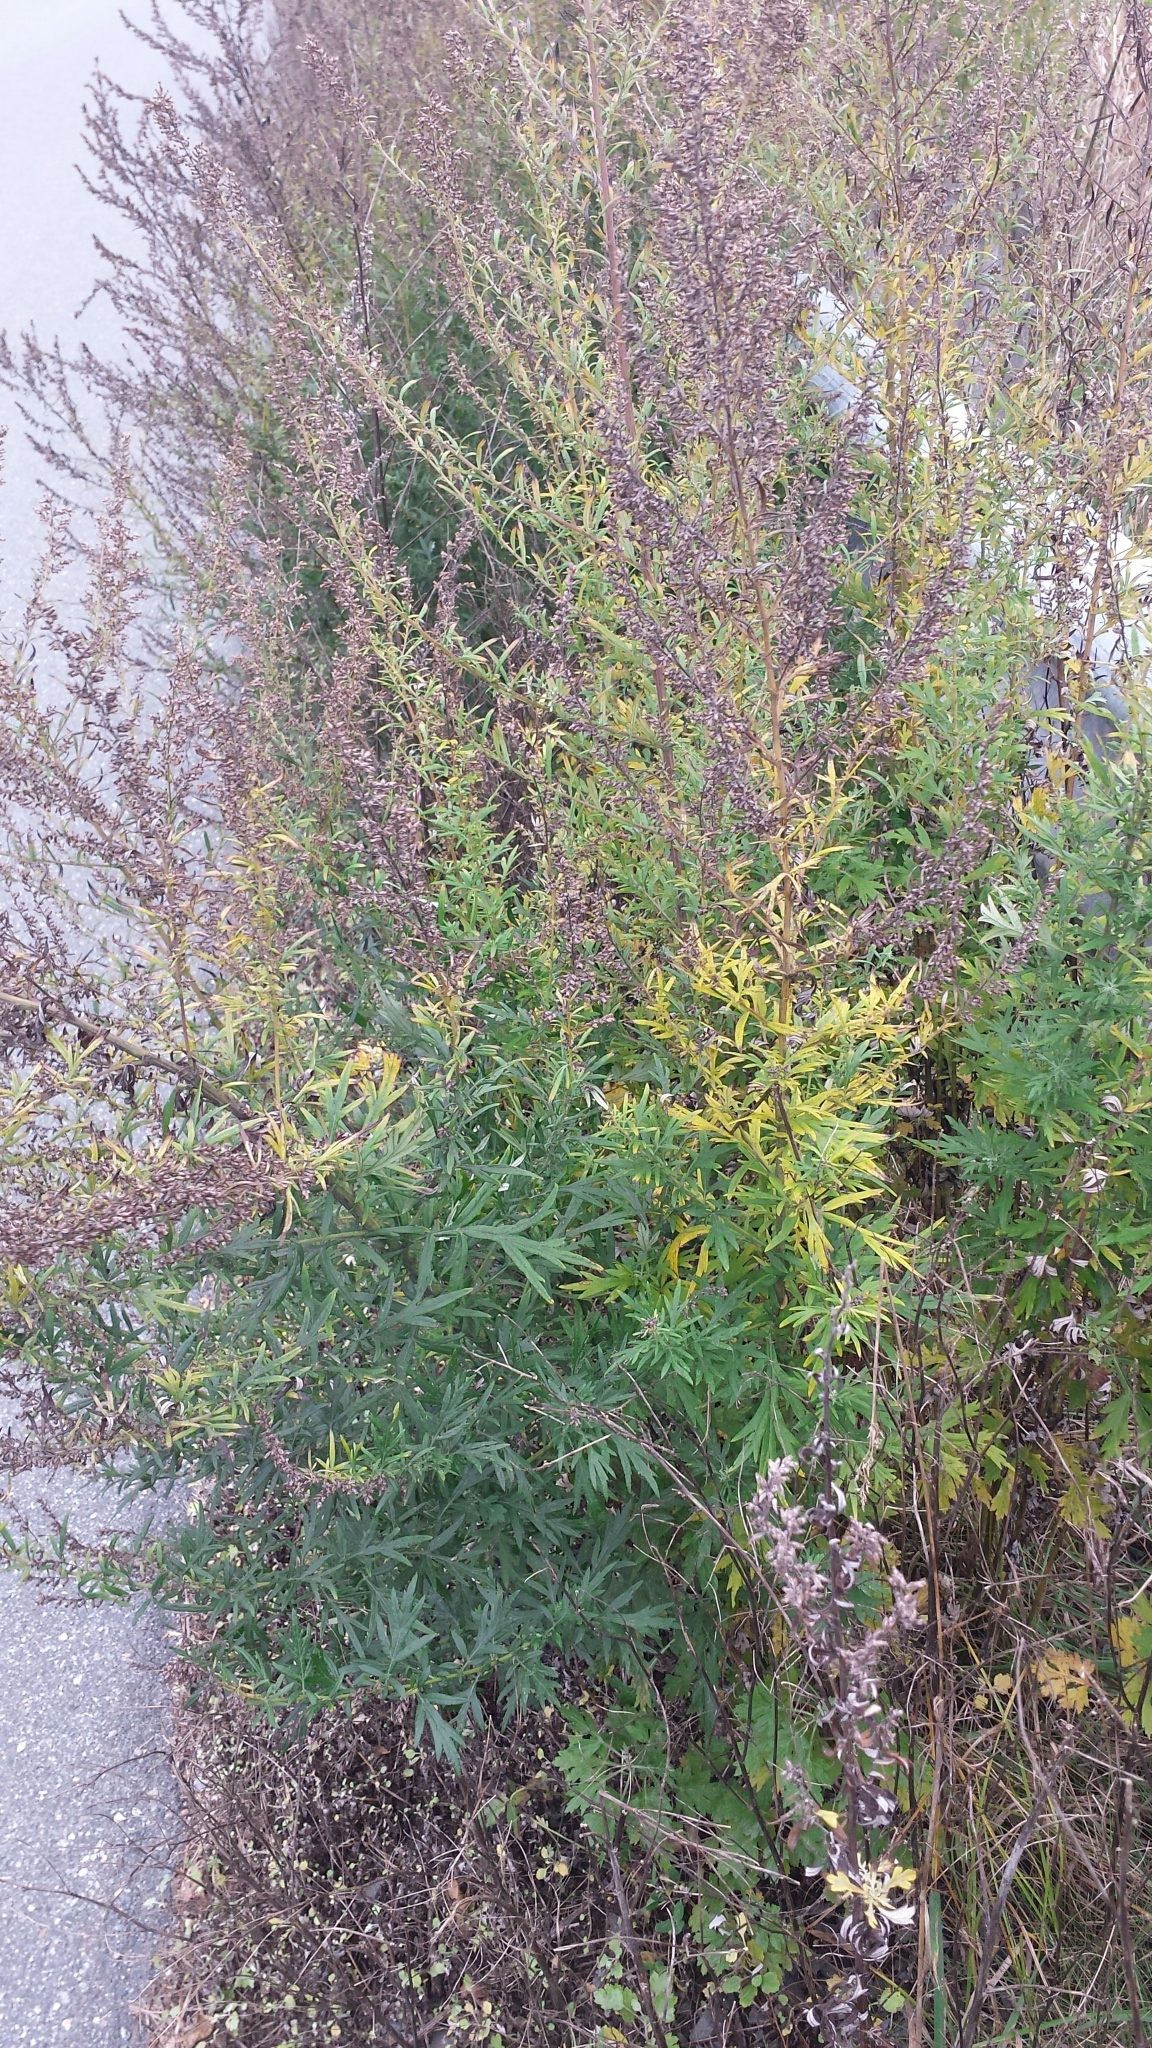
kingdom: Plantae
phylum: Tracheophyta
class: Magnoliopsida
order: Asterales
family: Asteraceae
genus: Artemisia
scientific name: Artemisia vulgaris
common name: Mugwort
